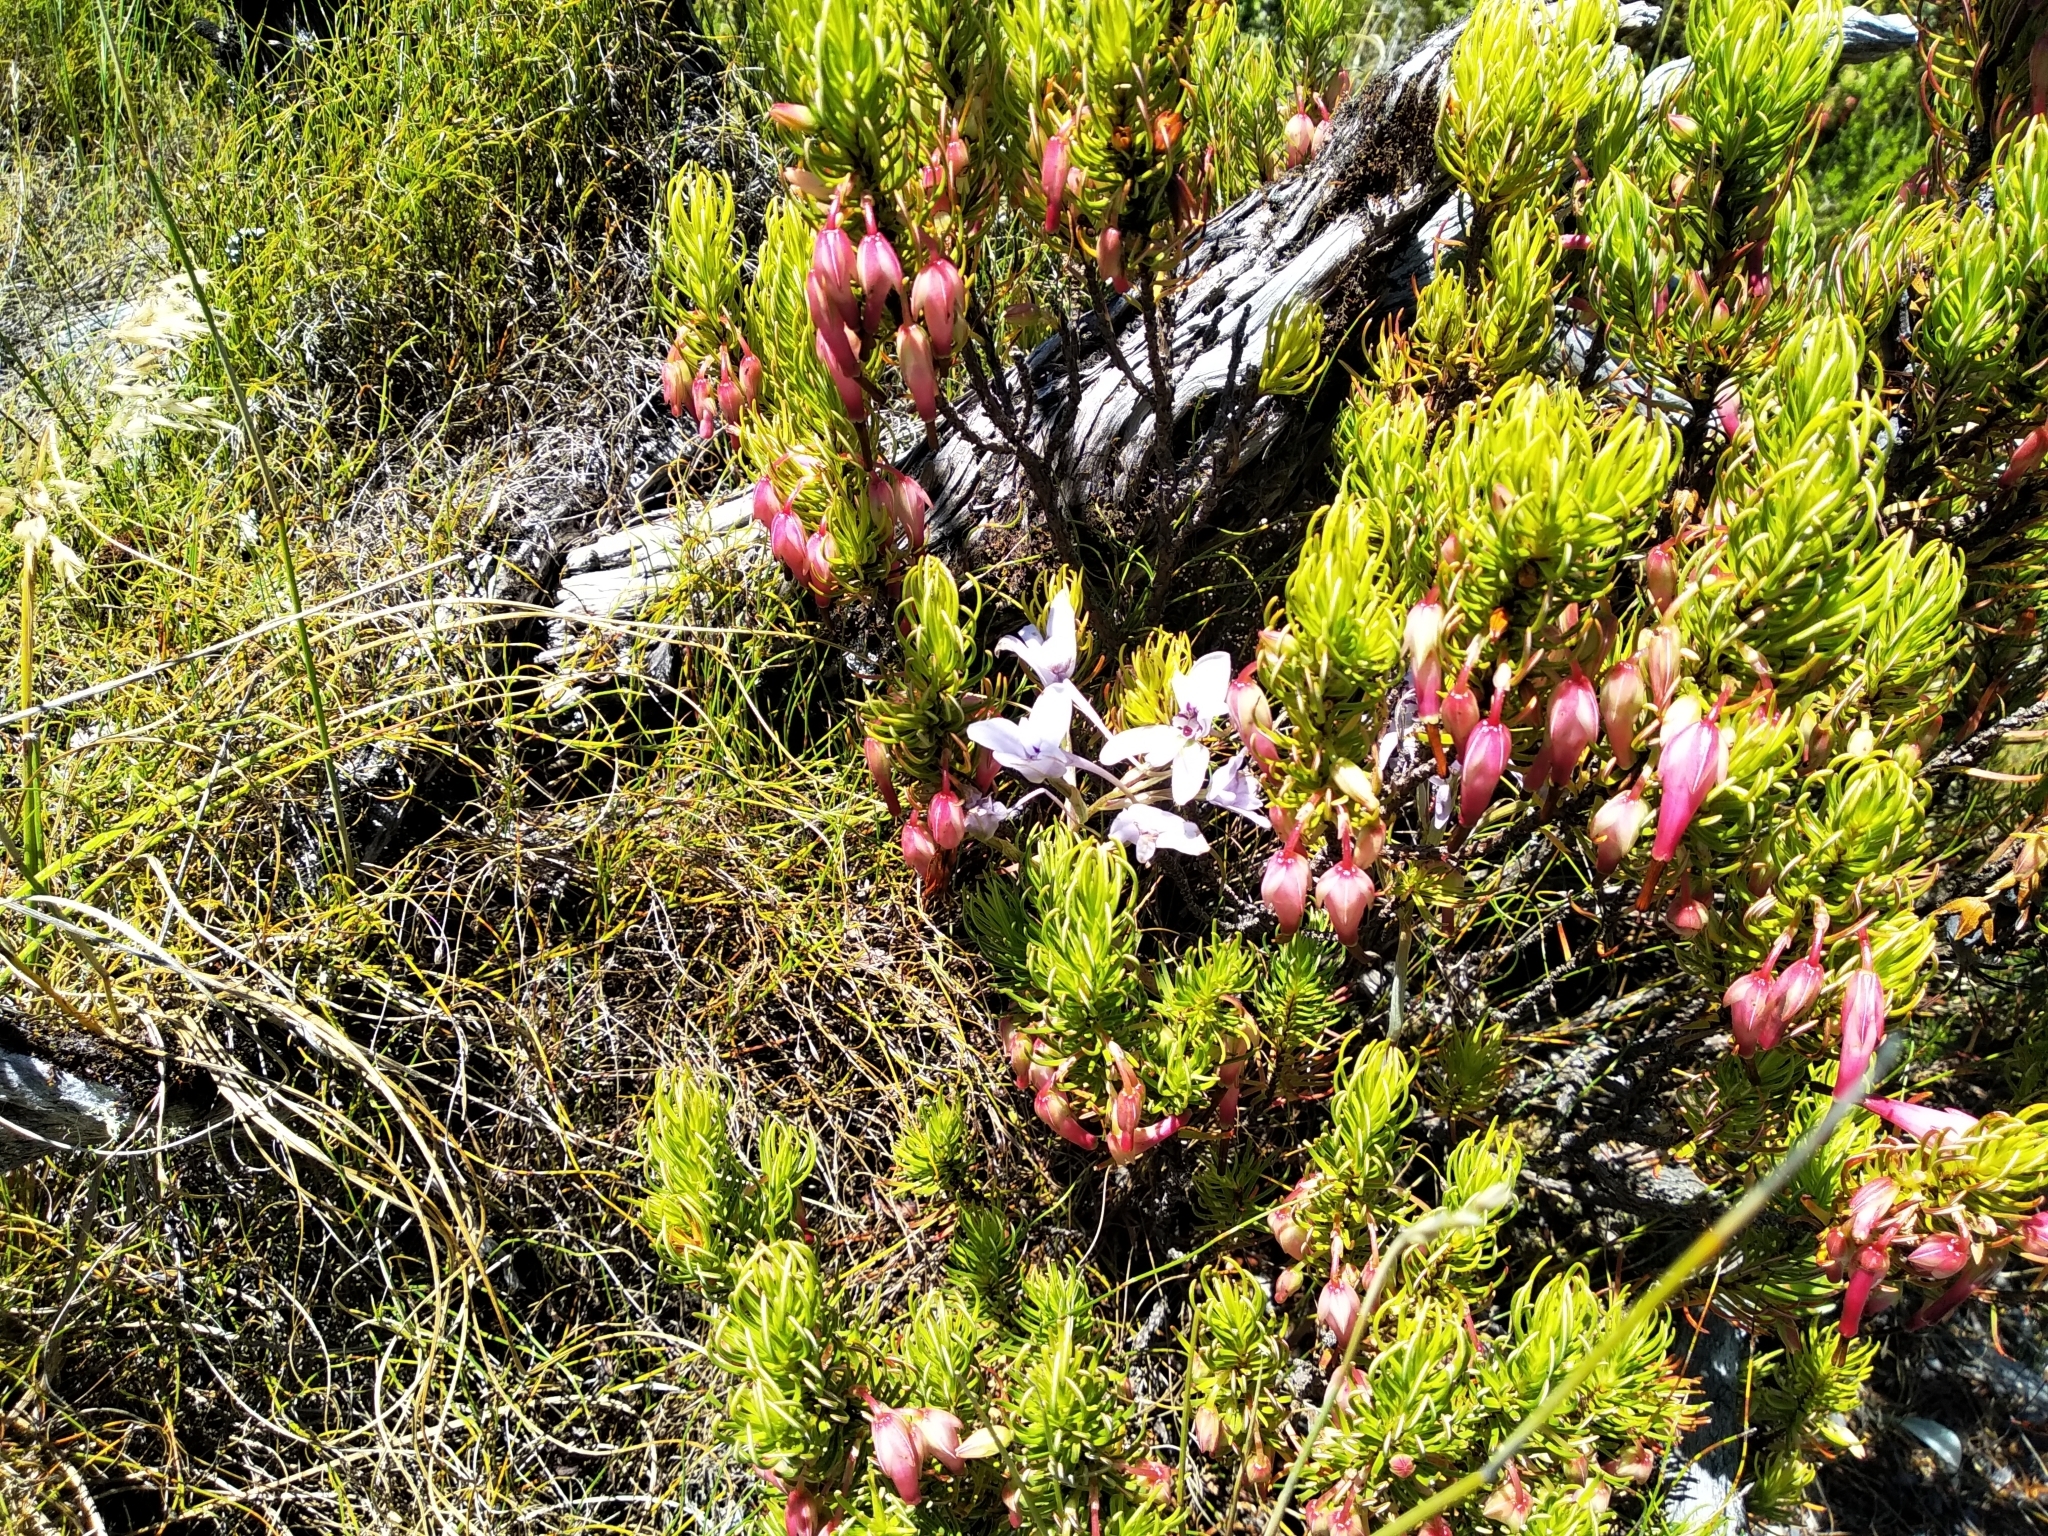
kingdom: Plantae
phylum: Tracheophyta
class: Liliopsida
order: Asparagales
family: Orchidaceae
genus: Disa
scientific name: Disa harveyana
